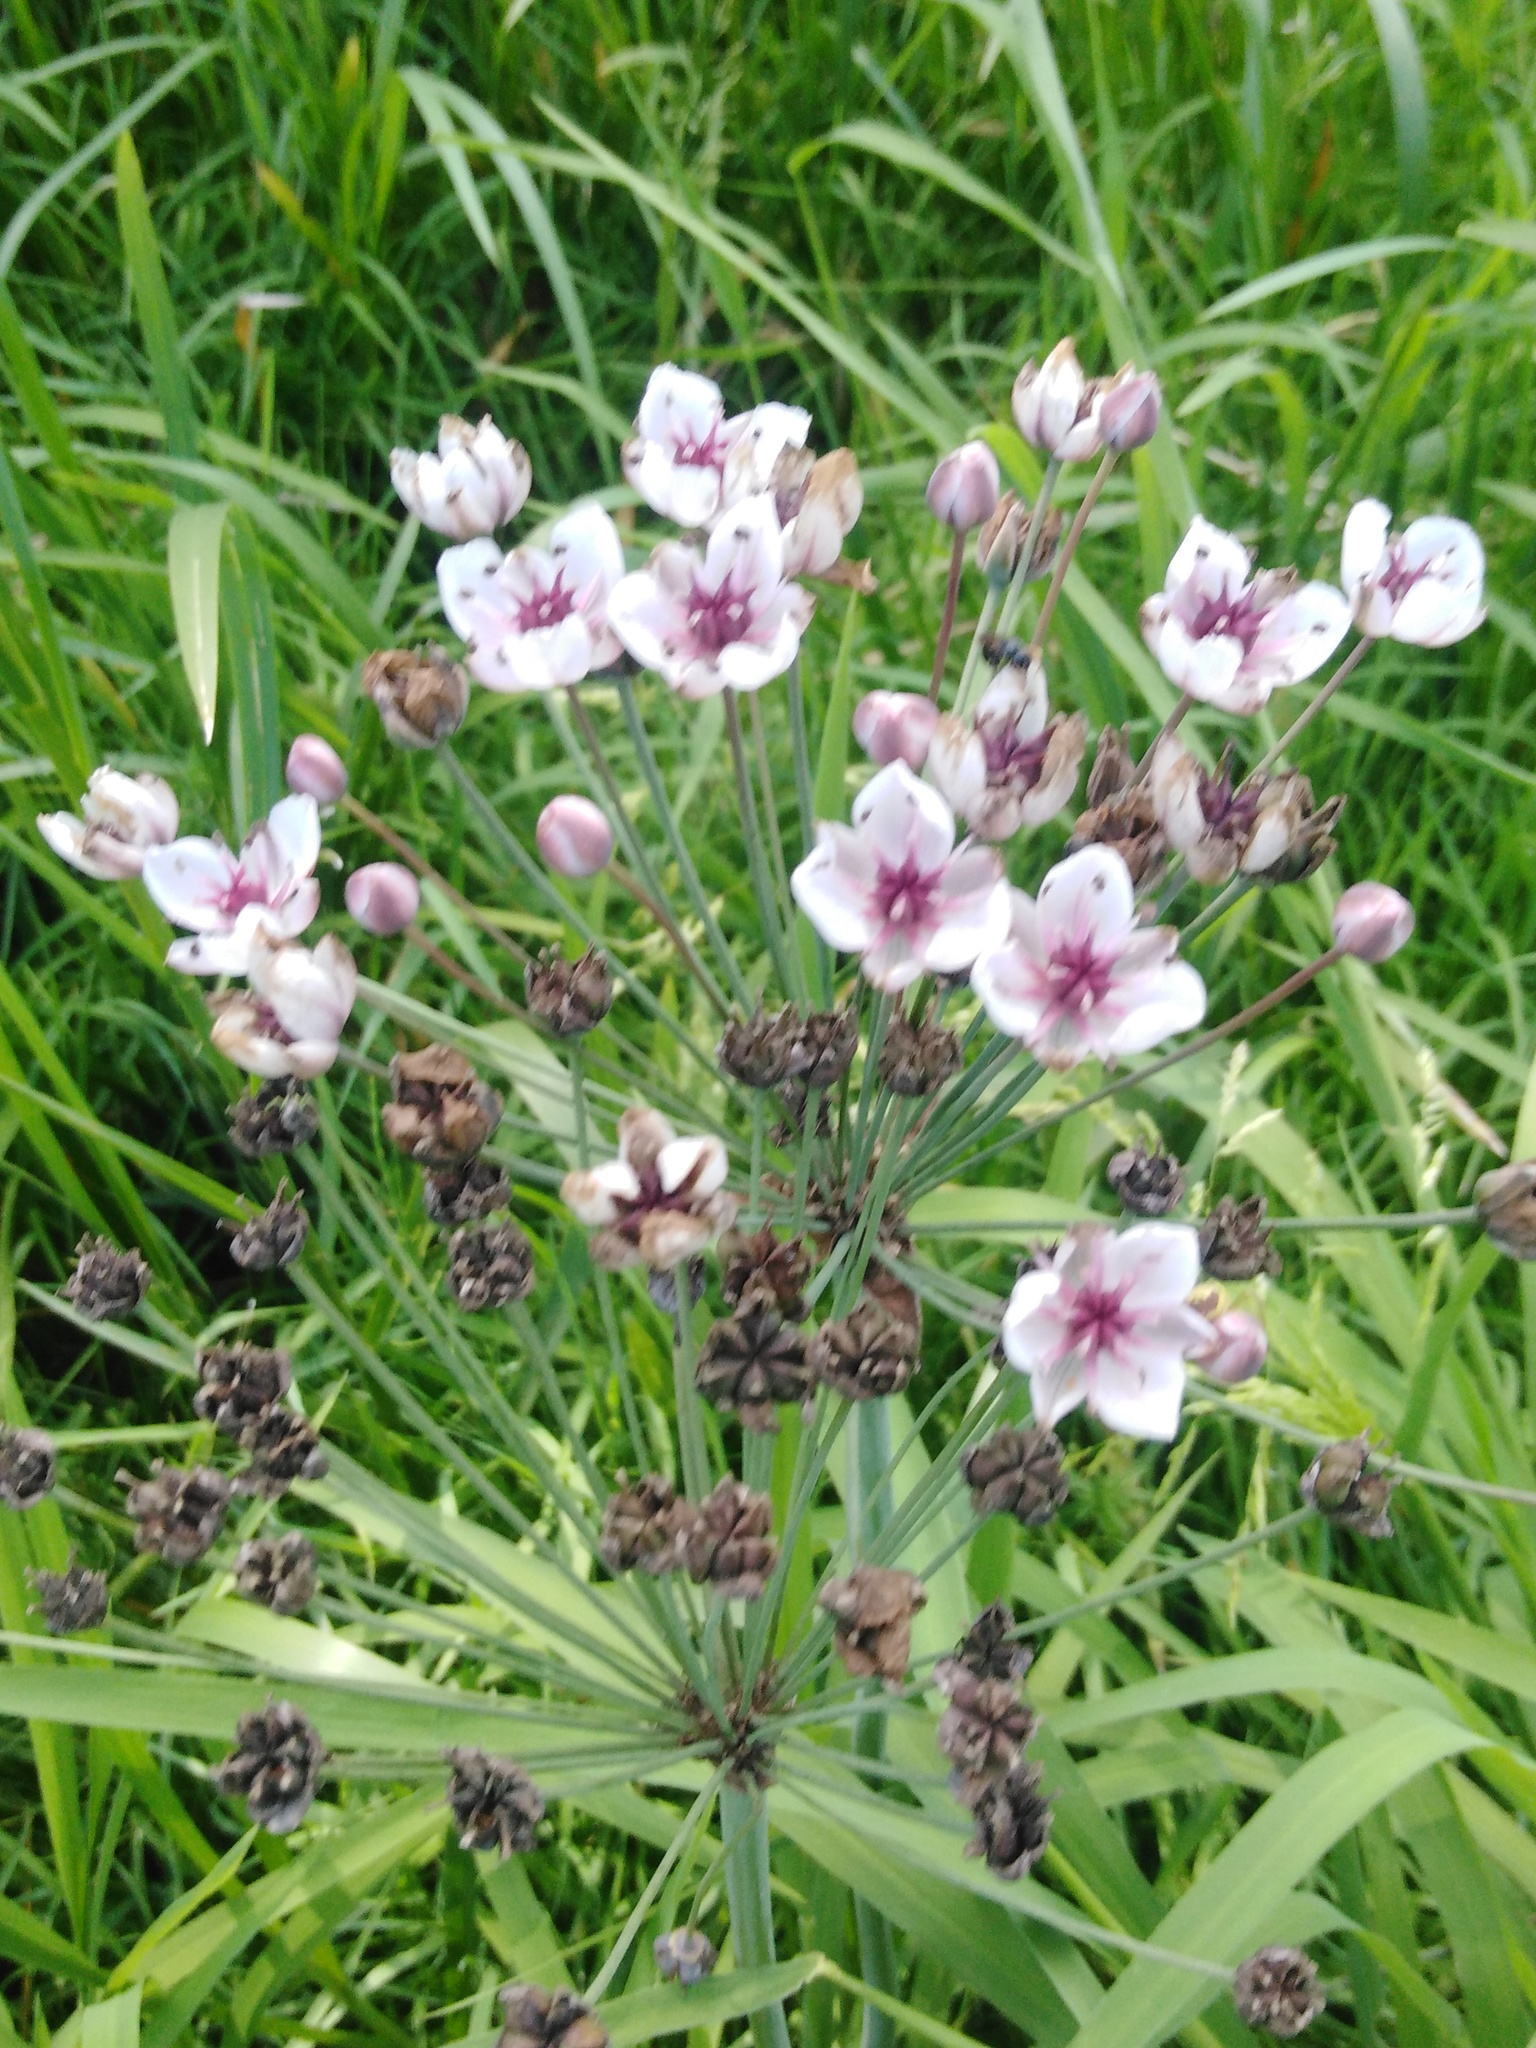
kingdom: Plantae
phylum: Tracheophyta
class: Liliopsida
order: Alismatales
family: Butomaceae
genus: Butomus
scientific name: Butomus umbellatus
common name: Flowering-rush
